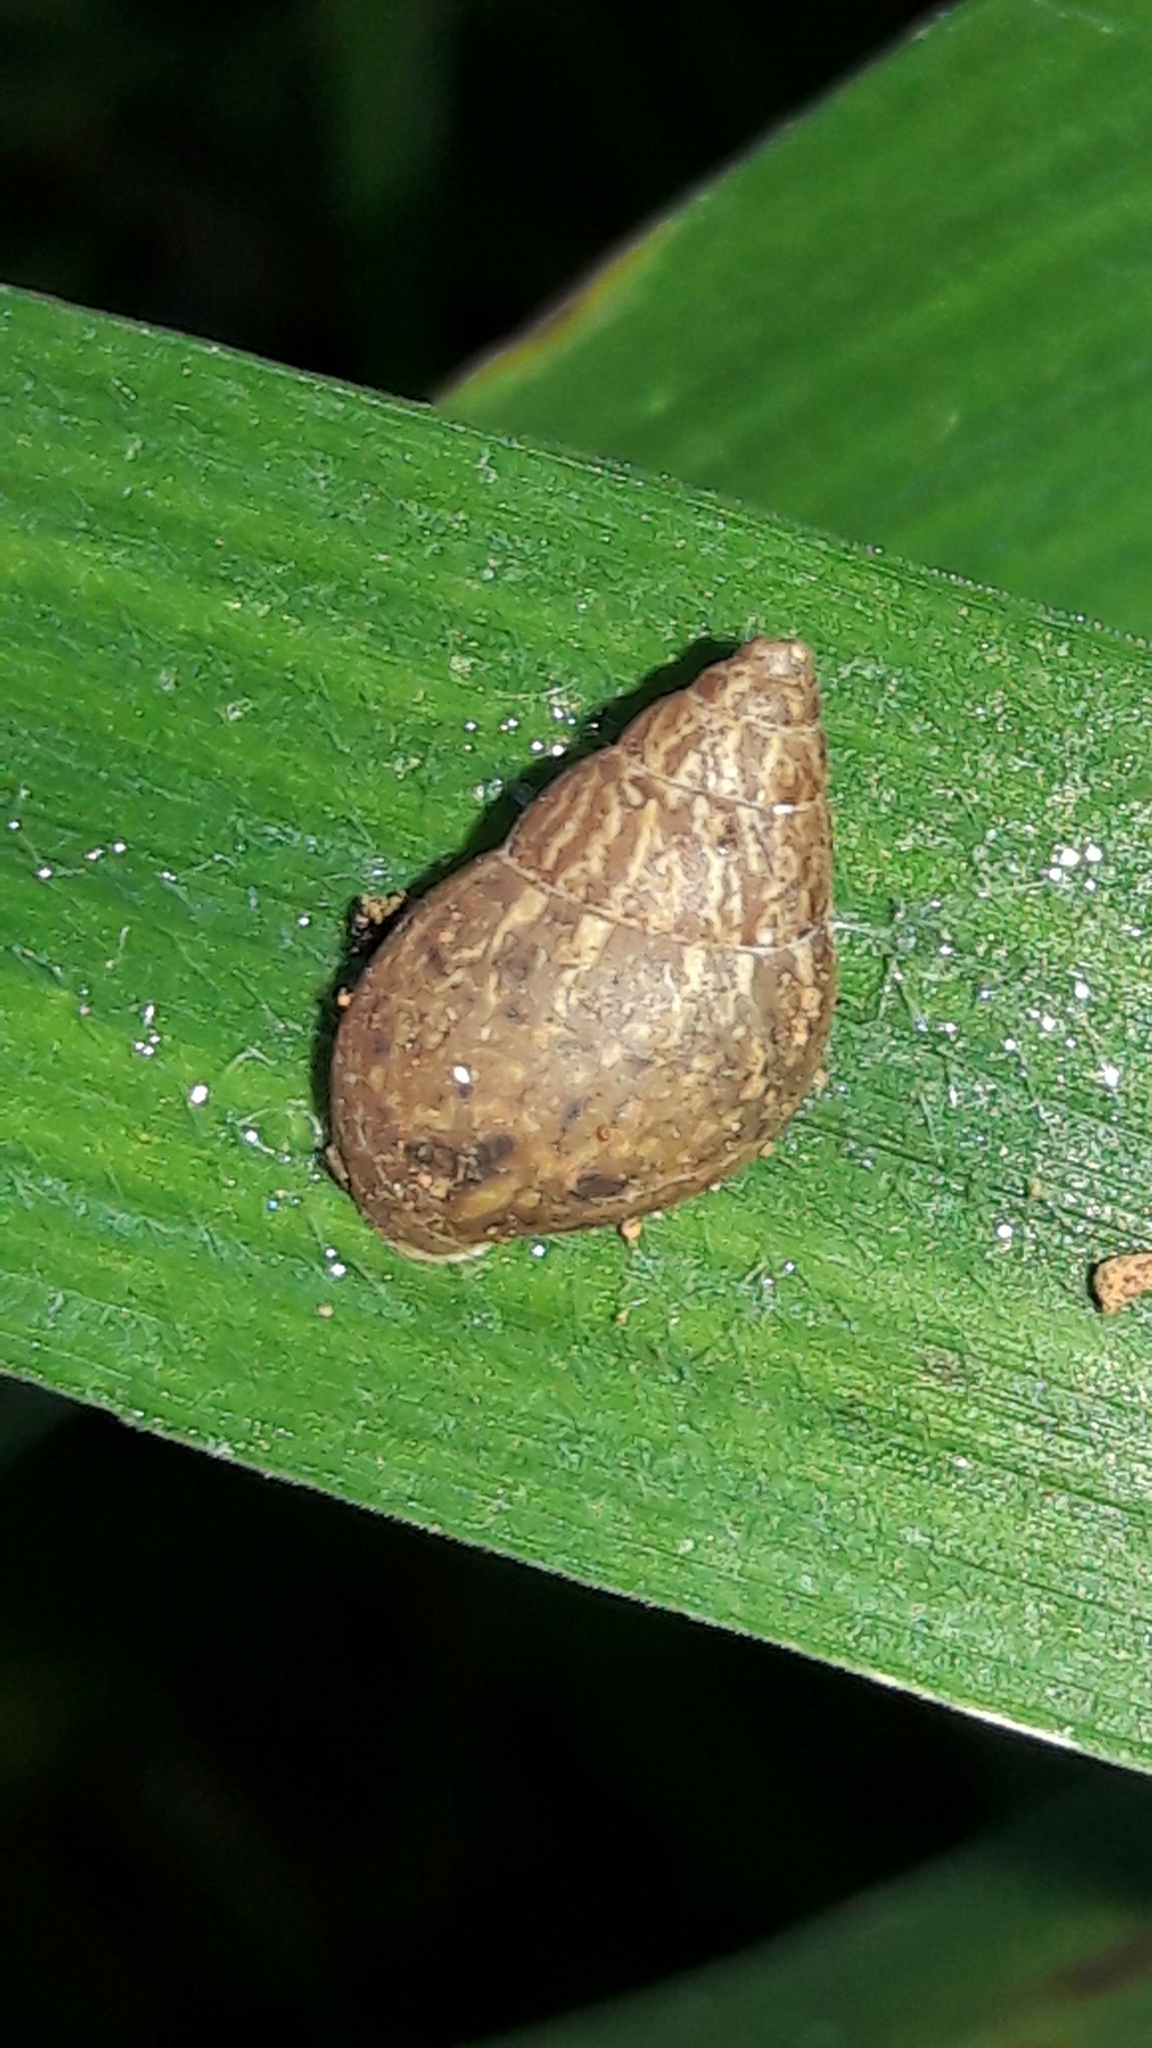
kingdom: Animalia
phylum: Mollusca
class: Gastropoda
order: Stylommatophora
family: Bulimulidae
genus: Bulimulus
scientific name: Bulimulus tenuissimus
